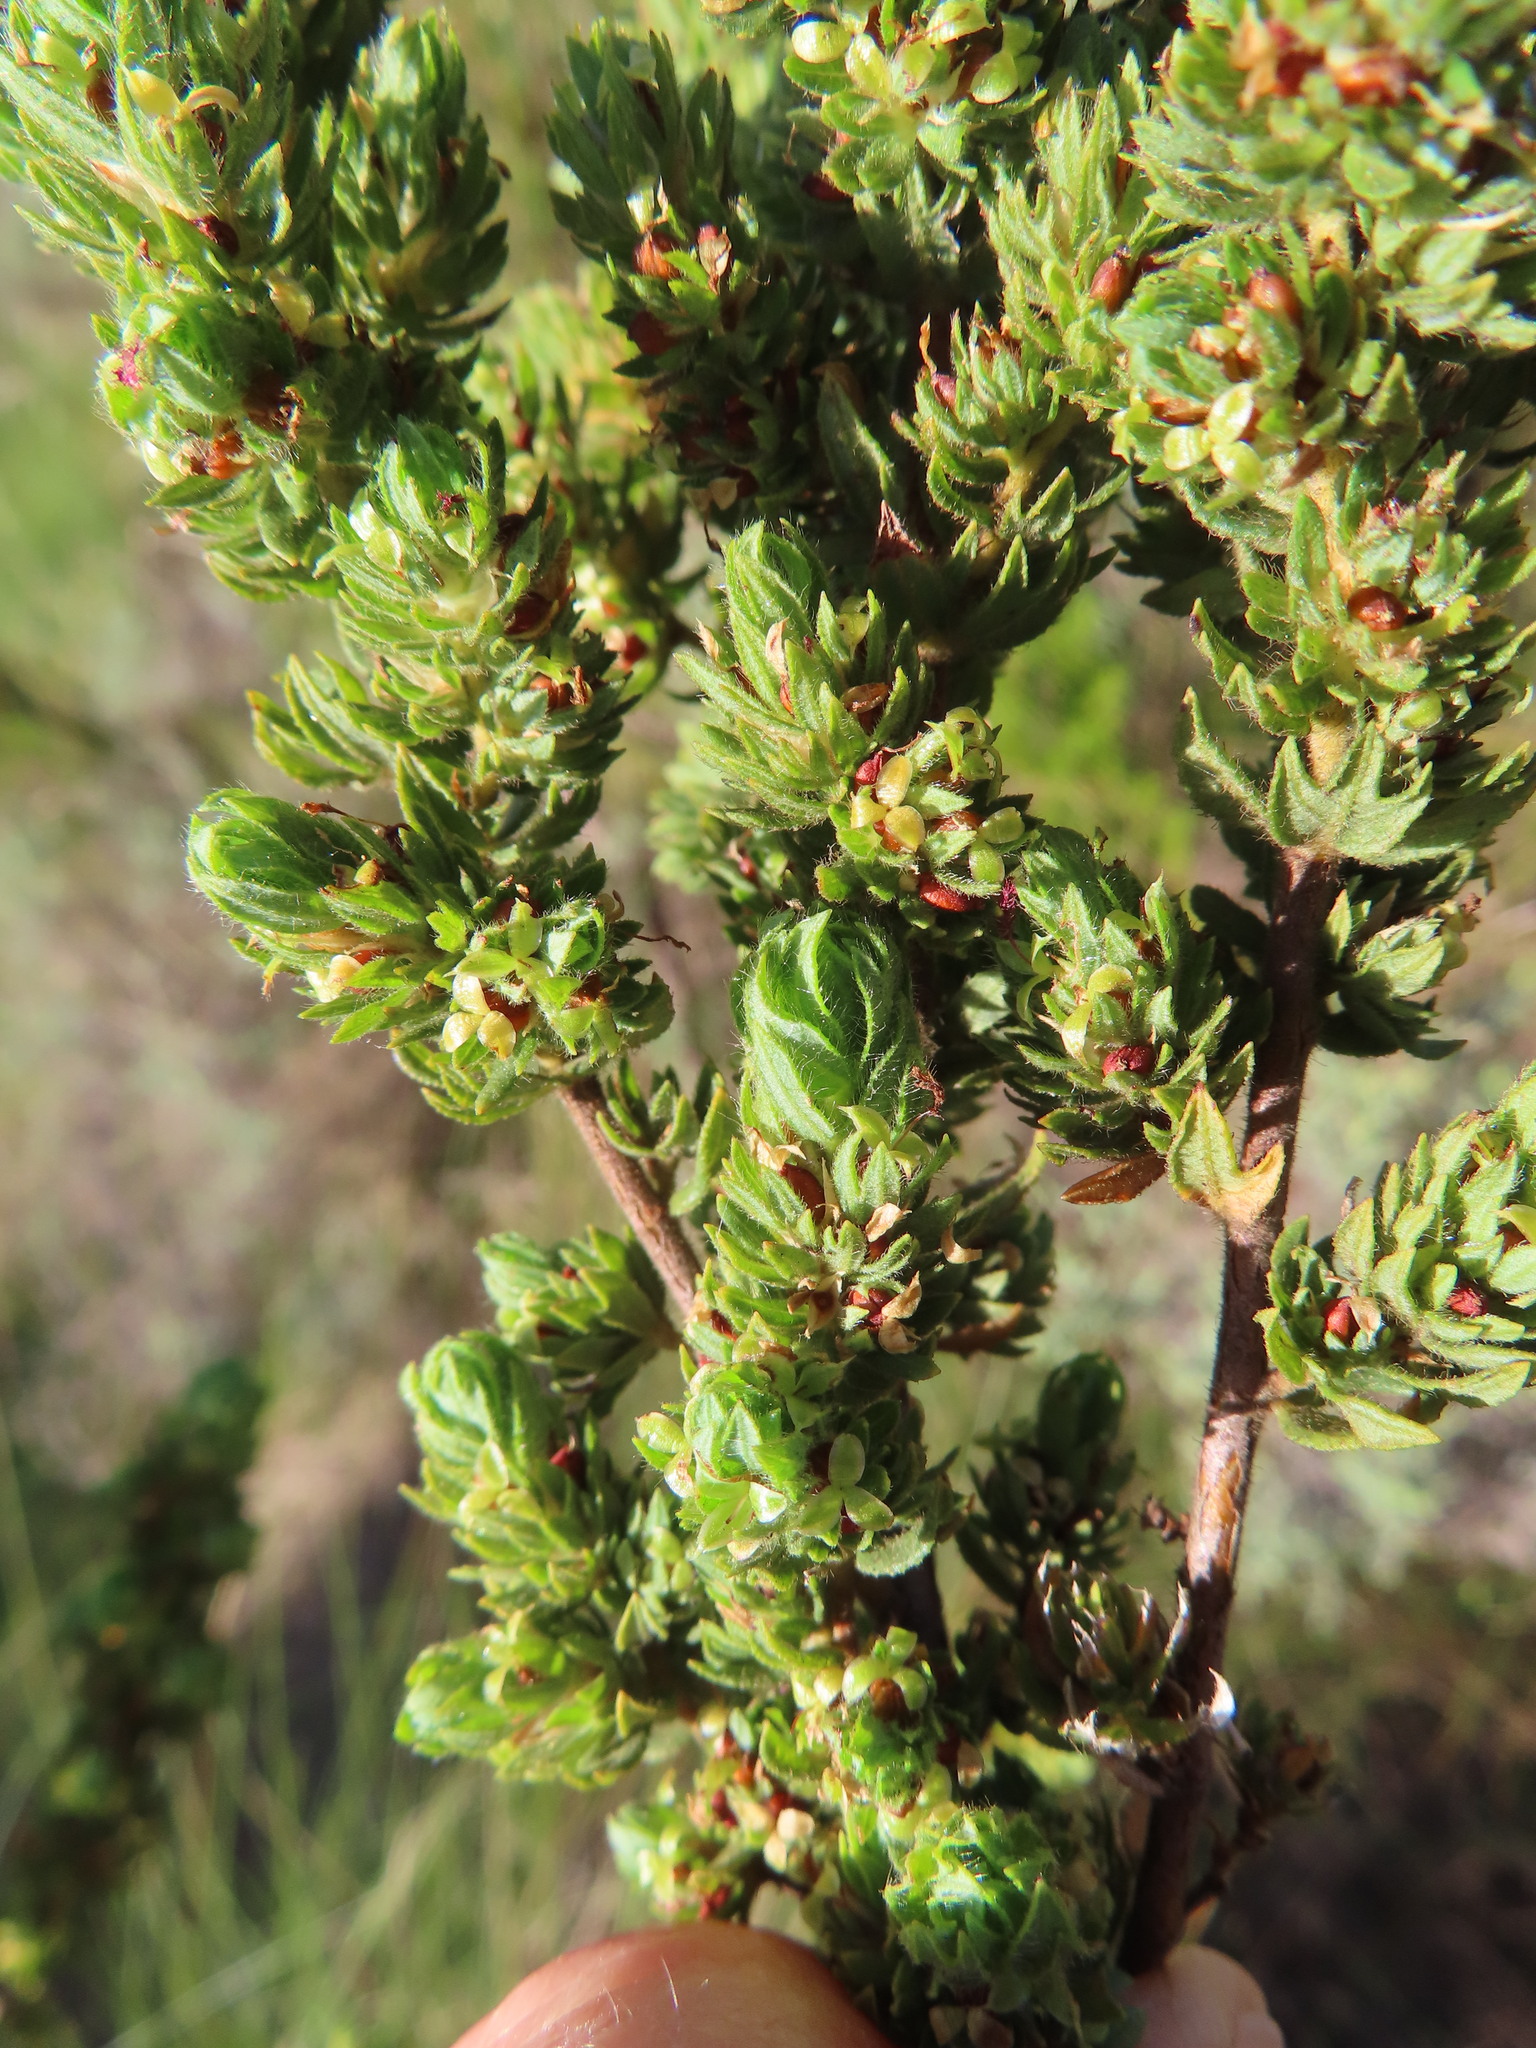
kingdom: Plantae
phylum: Tracheophyta
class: Magnoliopsida
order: Rosales
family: Rosaceae
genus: Cliffortia
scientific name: Cliffortia polygonifolia
